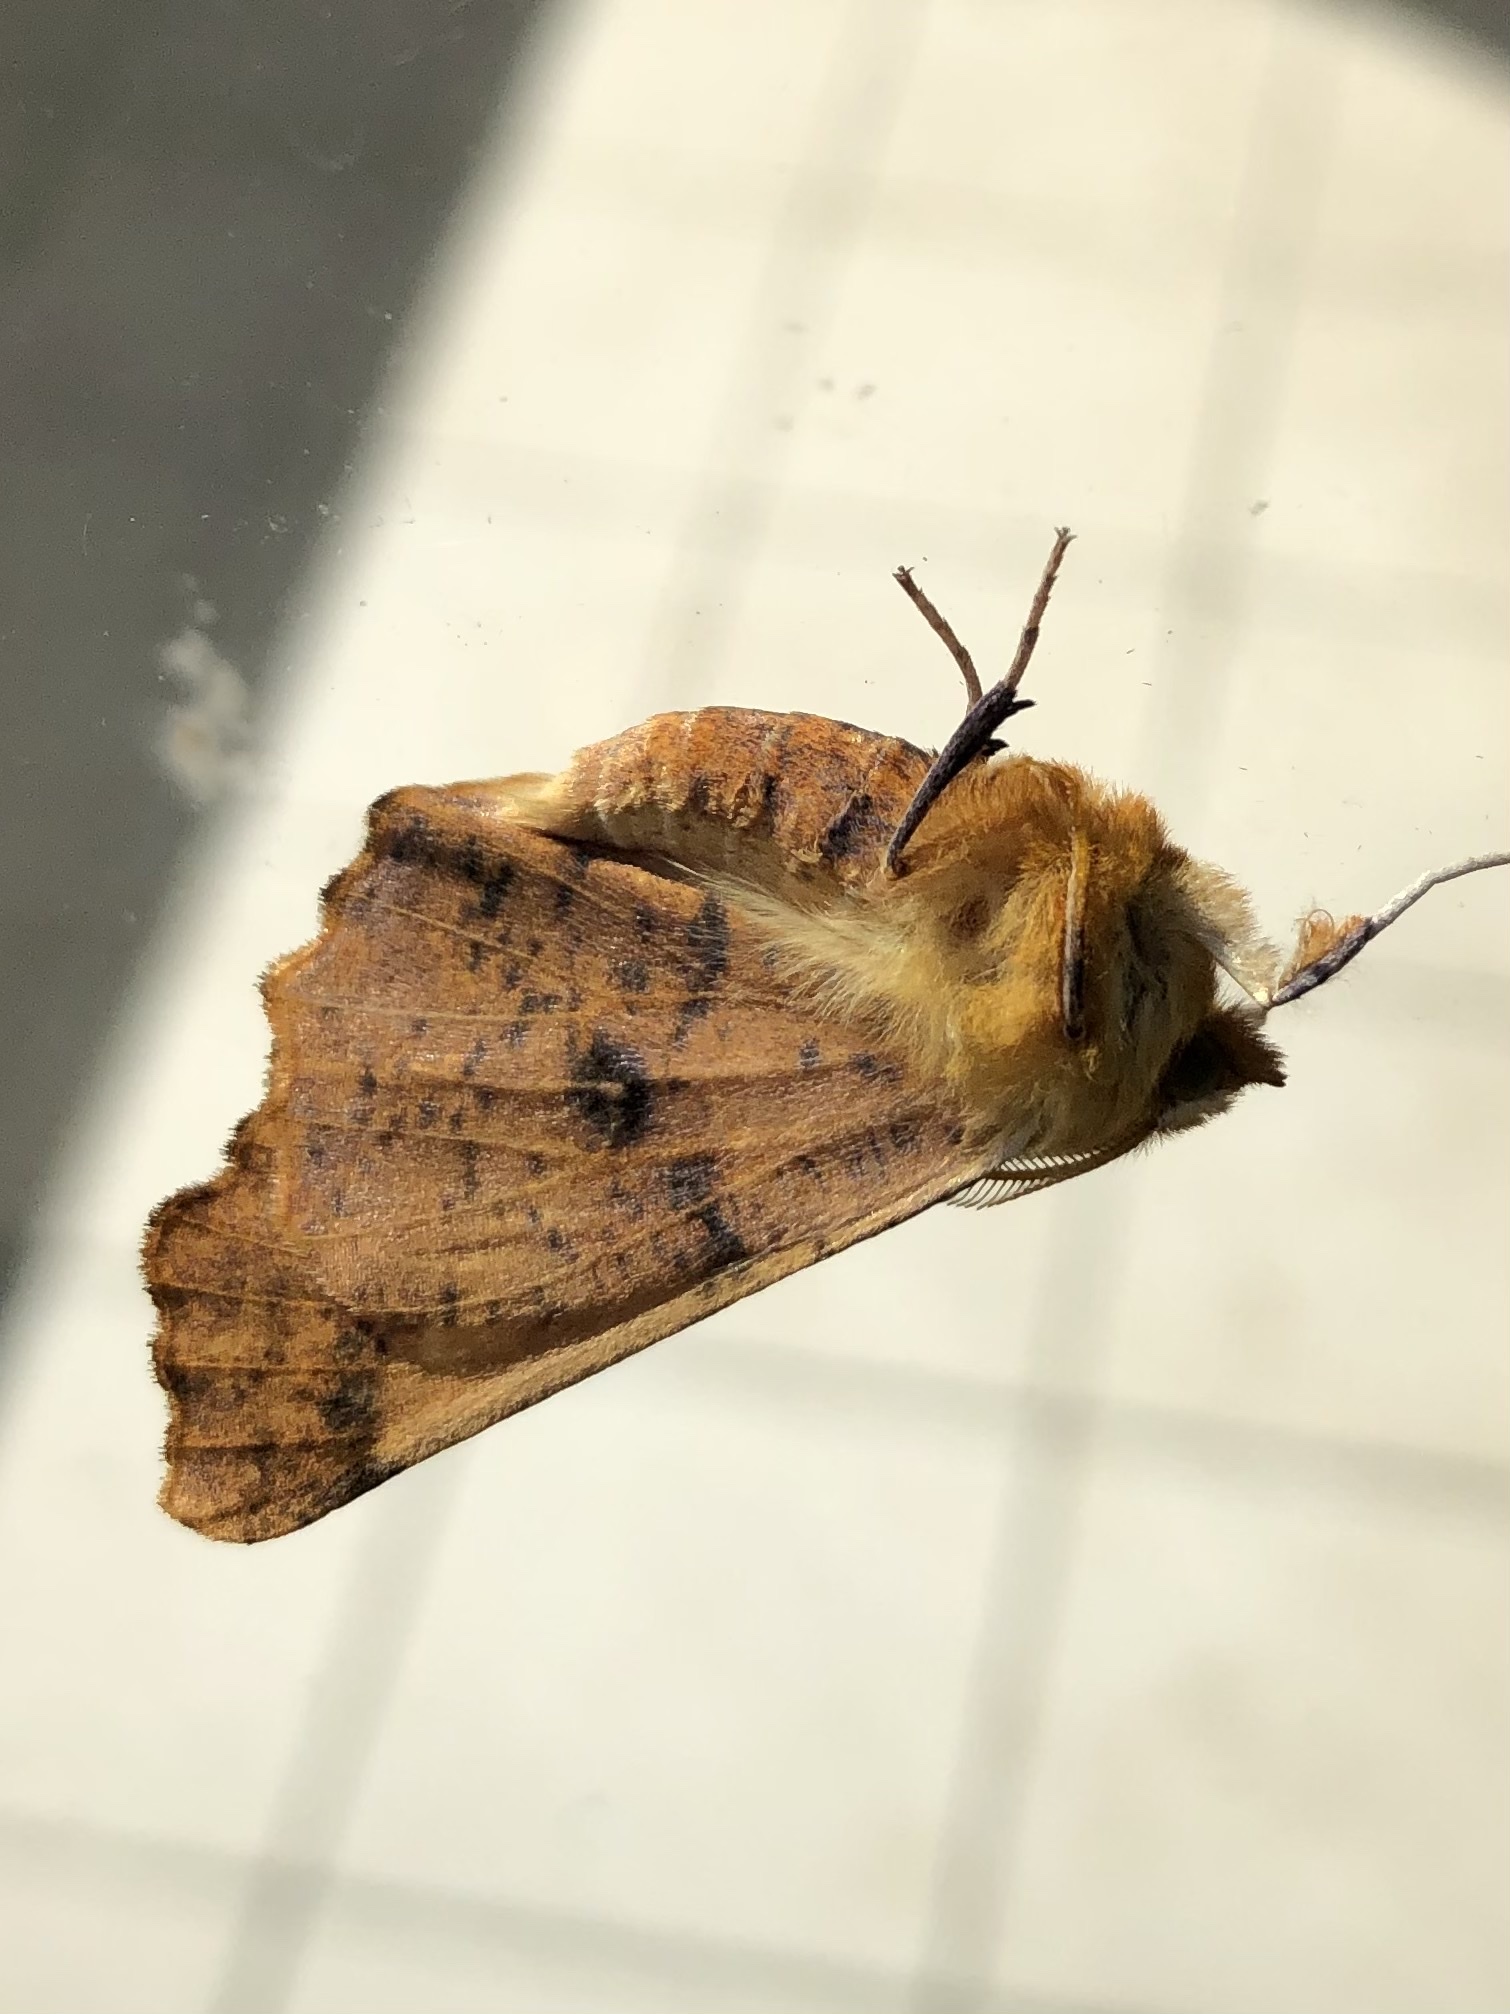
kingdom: Animalia
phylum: Arthropoda
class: Insecta
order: Lepidoptera
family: Geometridae
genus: Ennomos
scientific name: Ennomos autumnaria
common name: Large thorn
